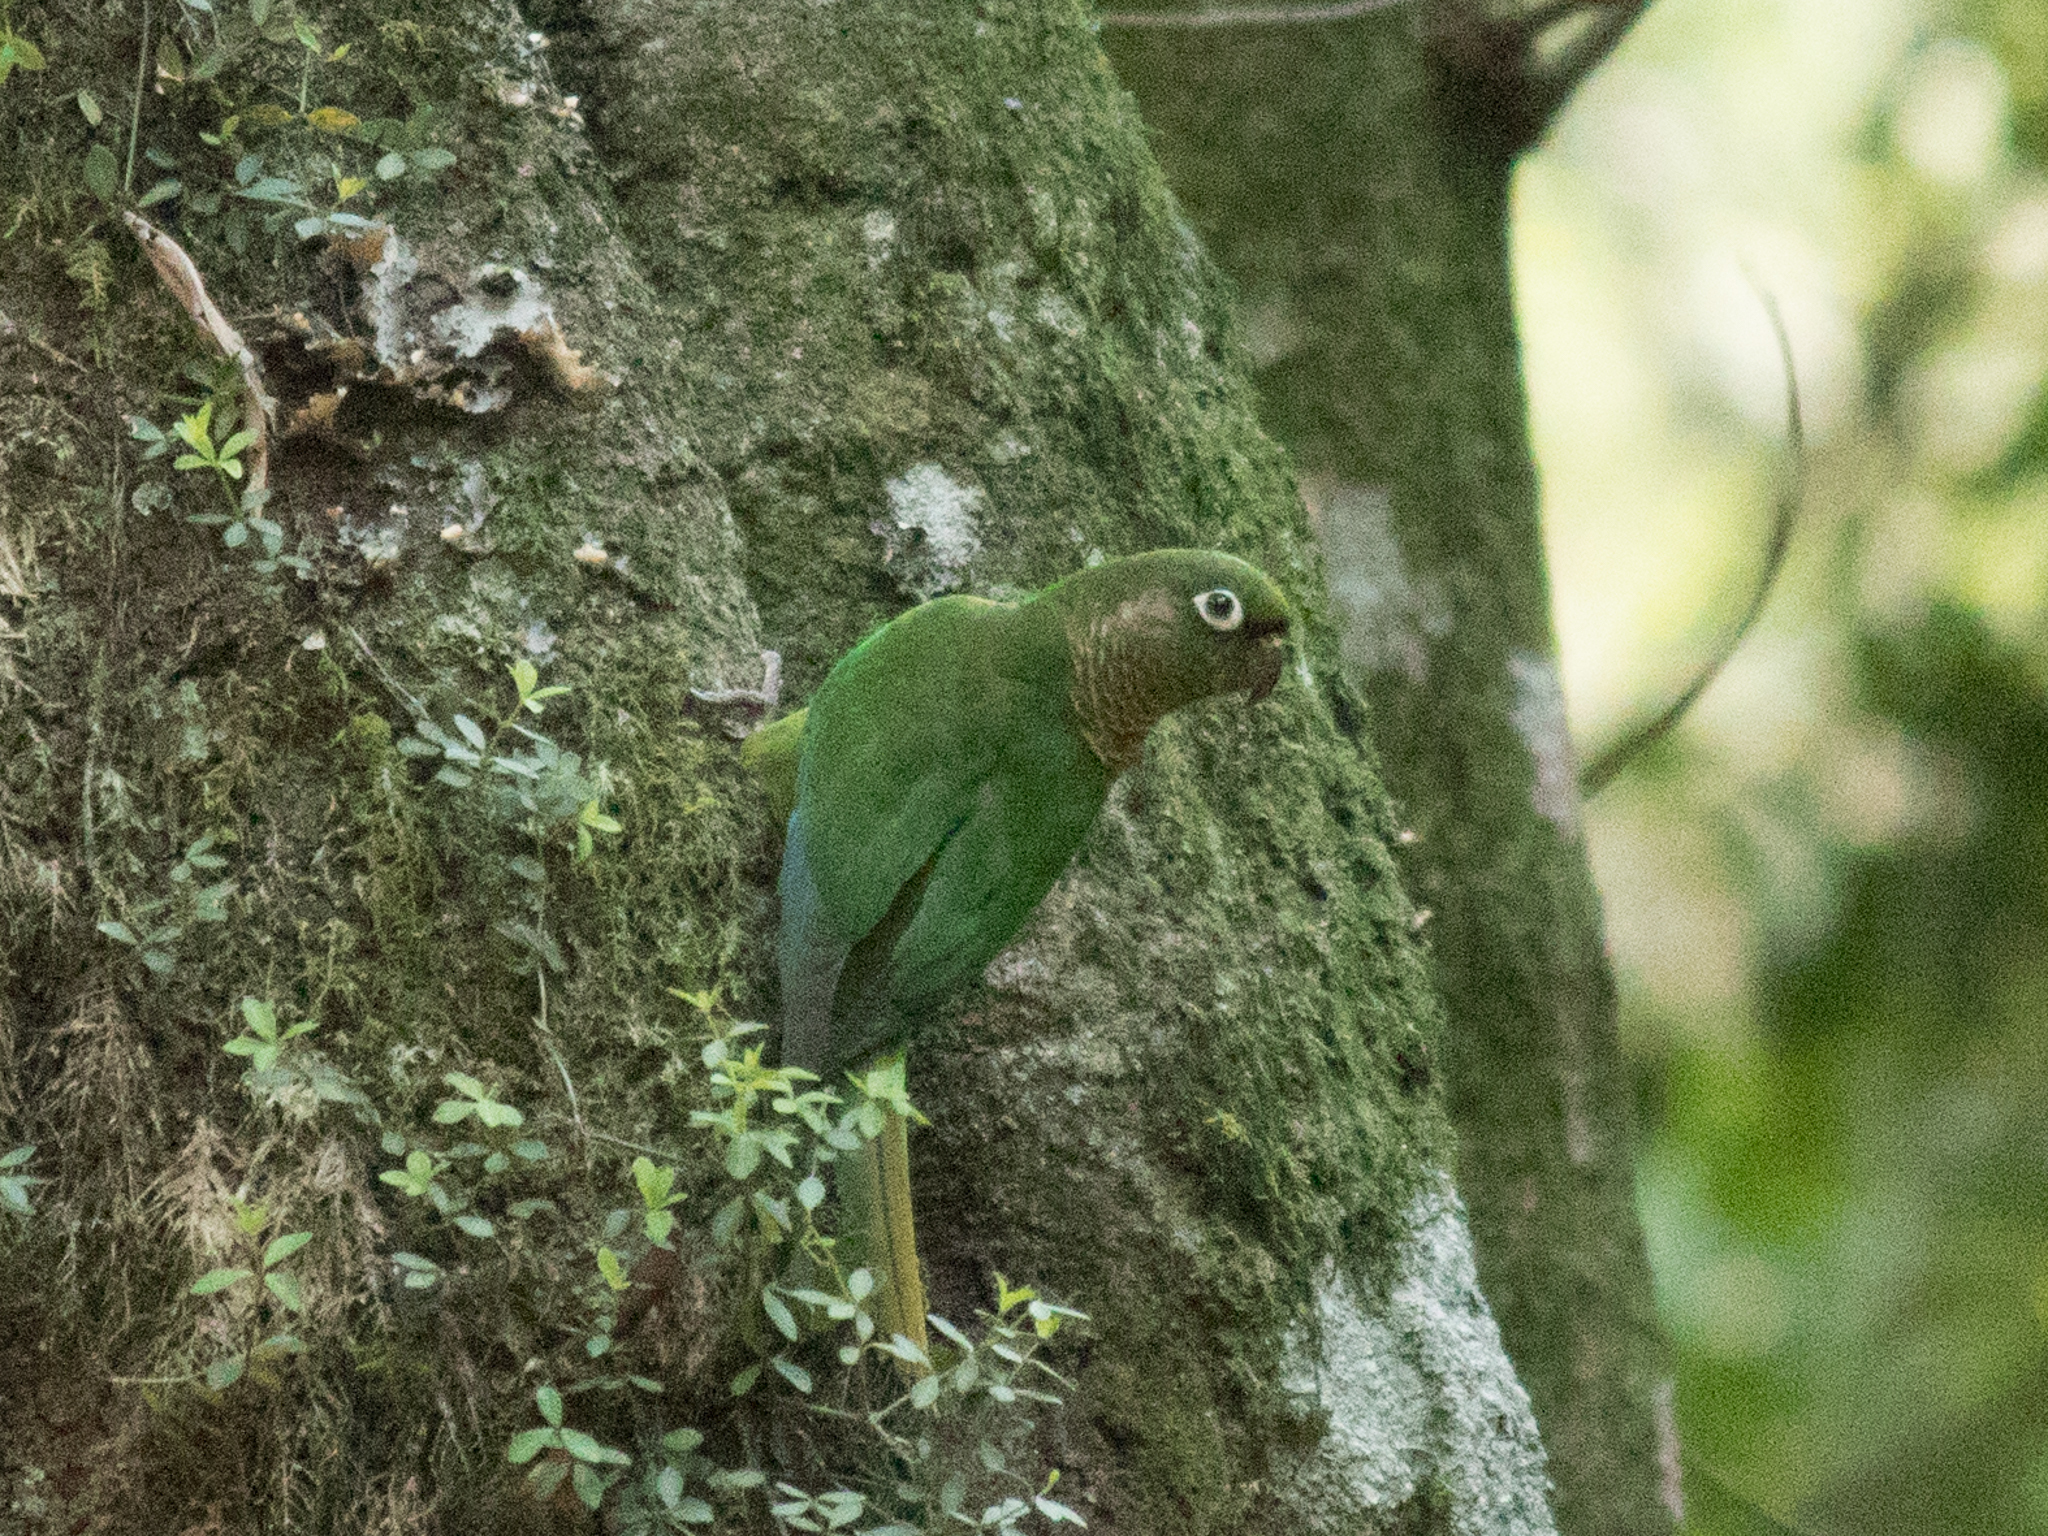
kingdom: Animalia
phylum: Chordata
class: Aves
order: Psittaciformes
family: Psittacidae
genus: Pyrrhura
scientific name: Pyrrhura frontalis
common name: Maroon-bellied parakeet
